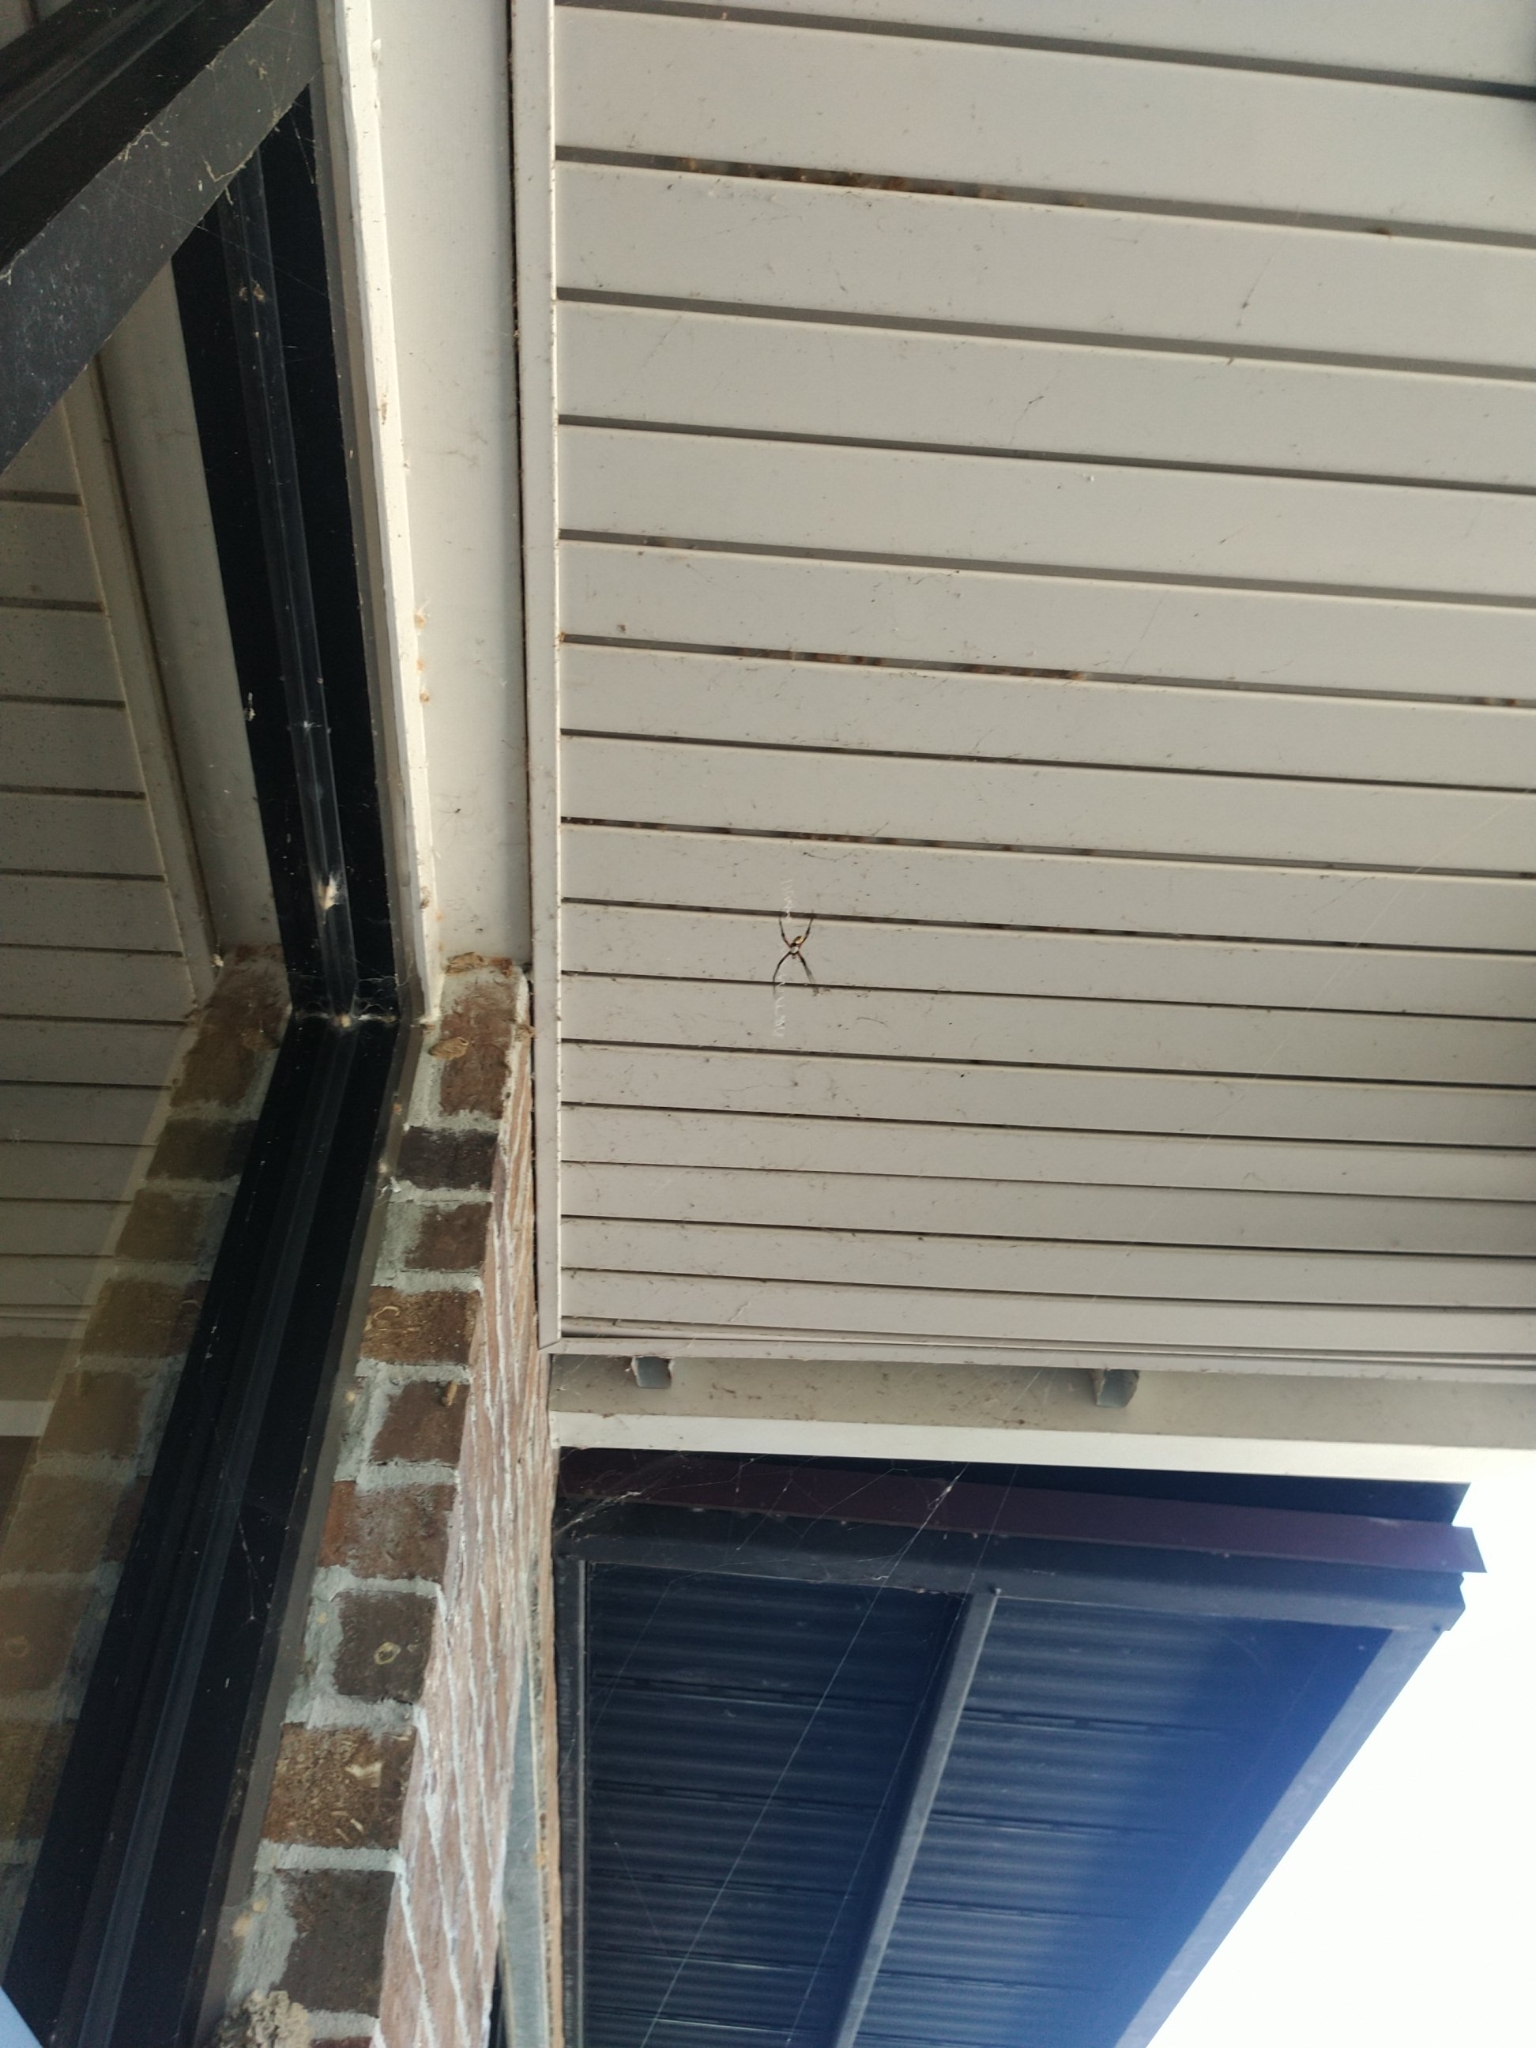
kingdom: Animalia
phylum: Arthropoda
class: Arachnida
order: Araneae
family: Araneidae
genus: Argiope
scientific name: Argiope aurantia
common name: Orb weavers
